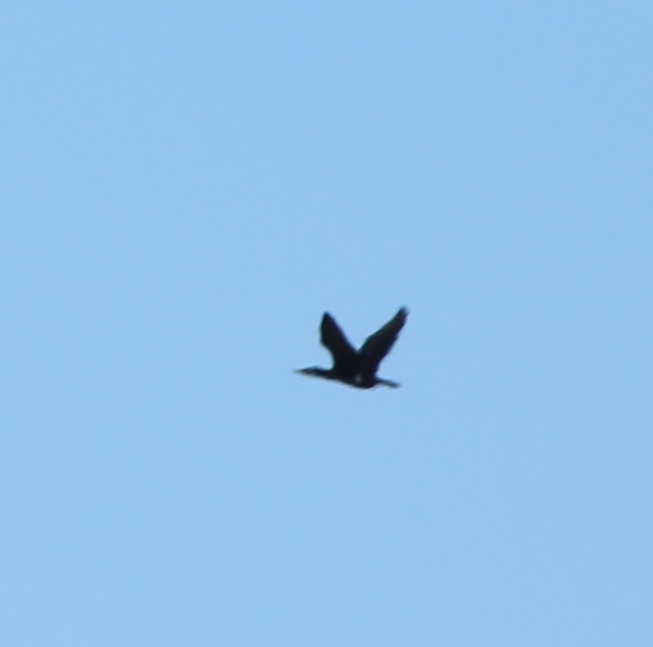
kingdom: Animalia
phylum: Chordata
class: Aves
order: Suliformes
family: Phalacrocoracidae
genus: Phalacrocorax
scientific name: Phalacrocorax carbo
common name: Great cormorant
